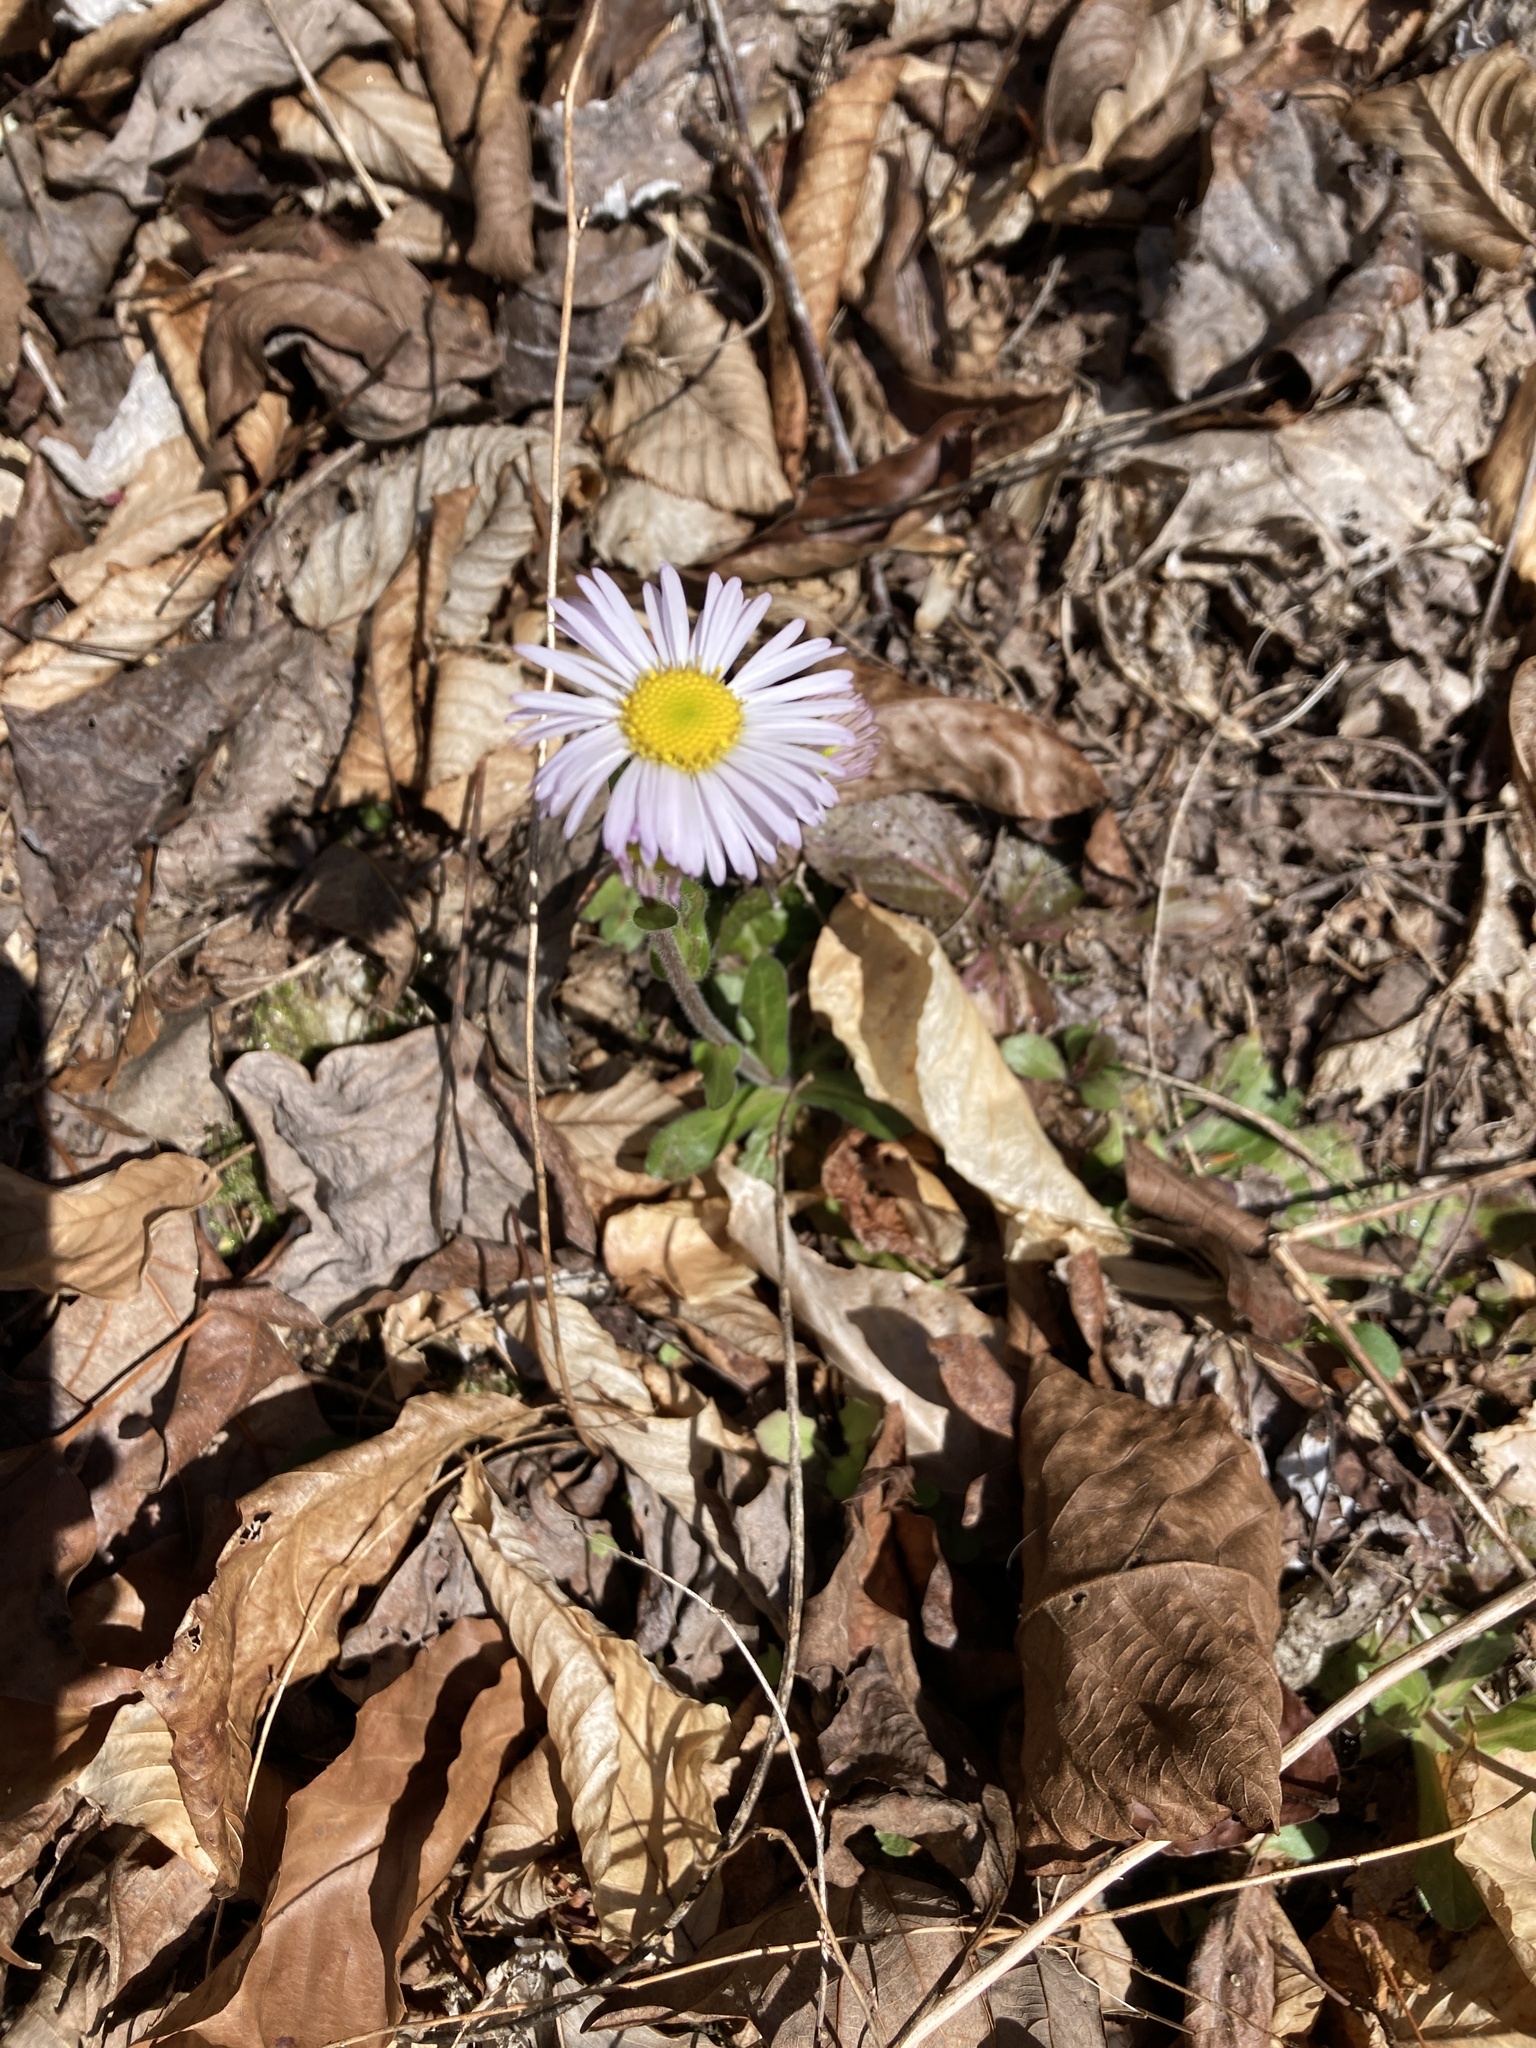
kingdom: Plantae
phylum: Tracheophyta
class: Magnoliopsida
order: Asterales
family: Asteraceae
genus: Erigeron
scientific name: Erigeron pulchellus
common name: Hairy fleabane
